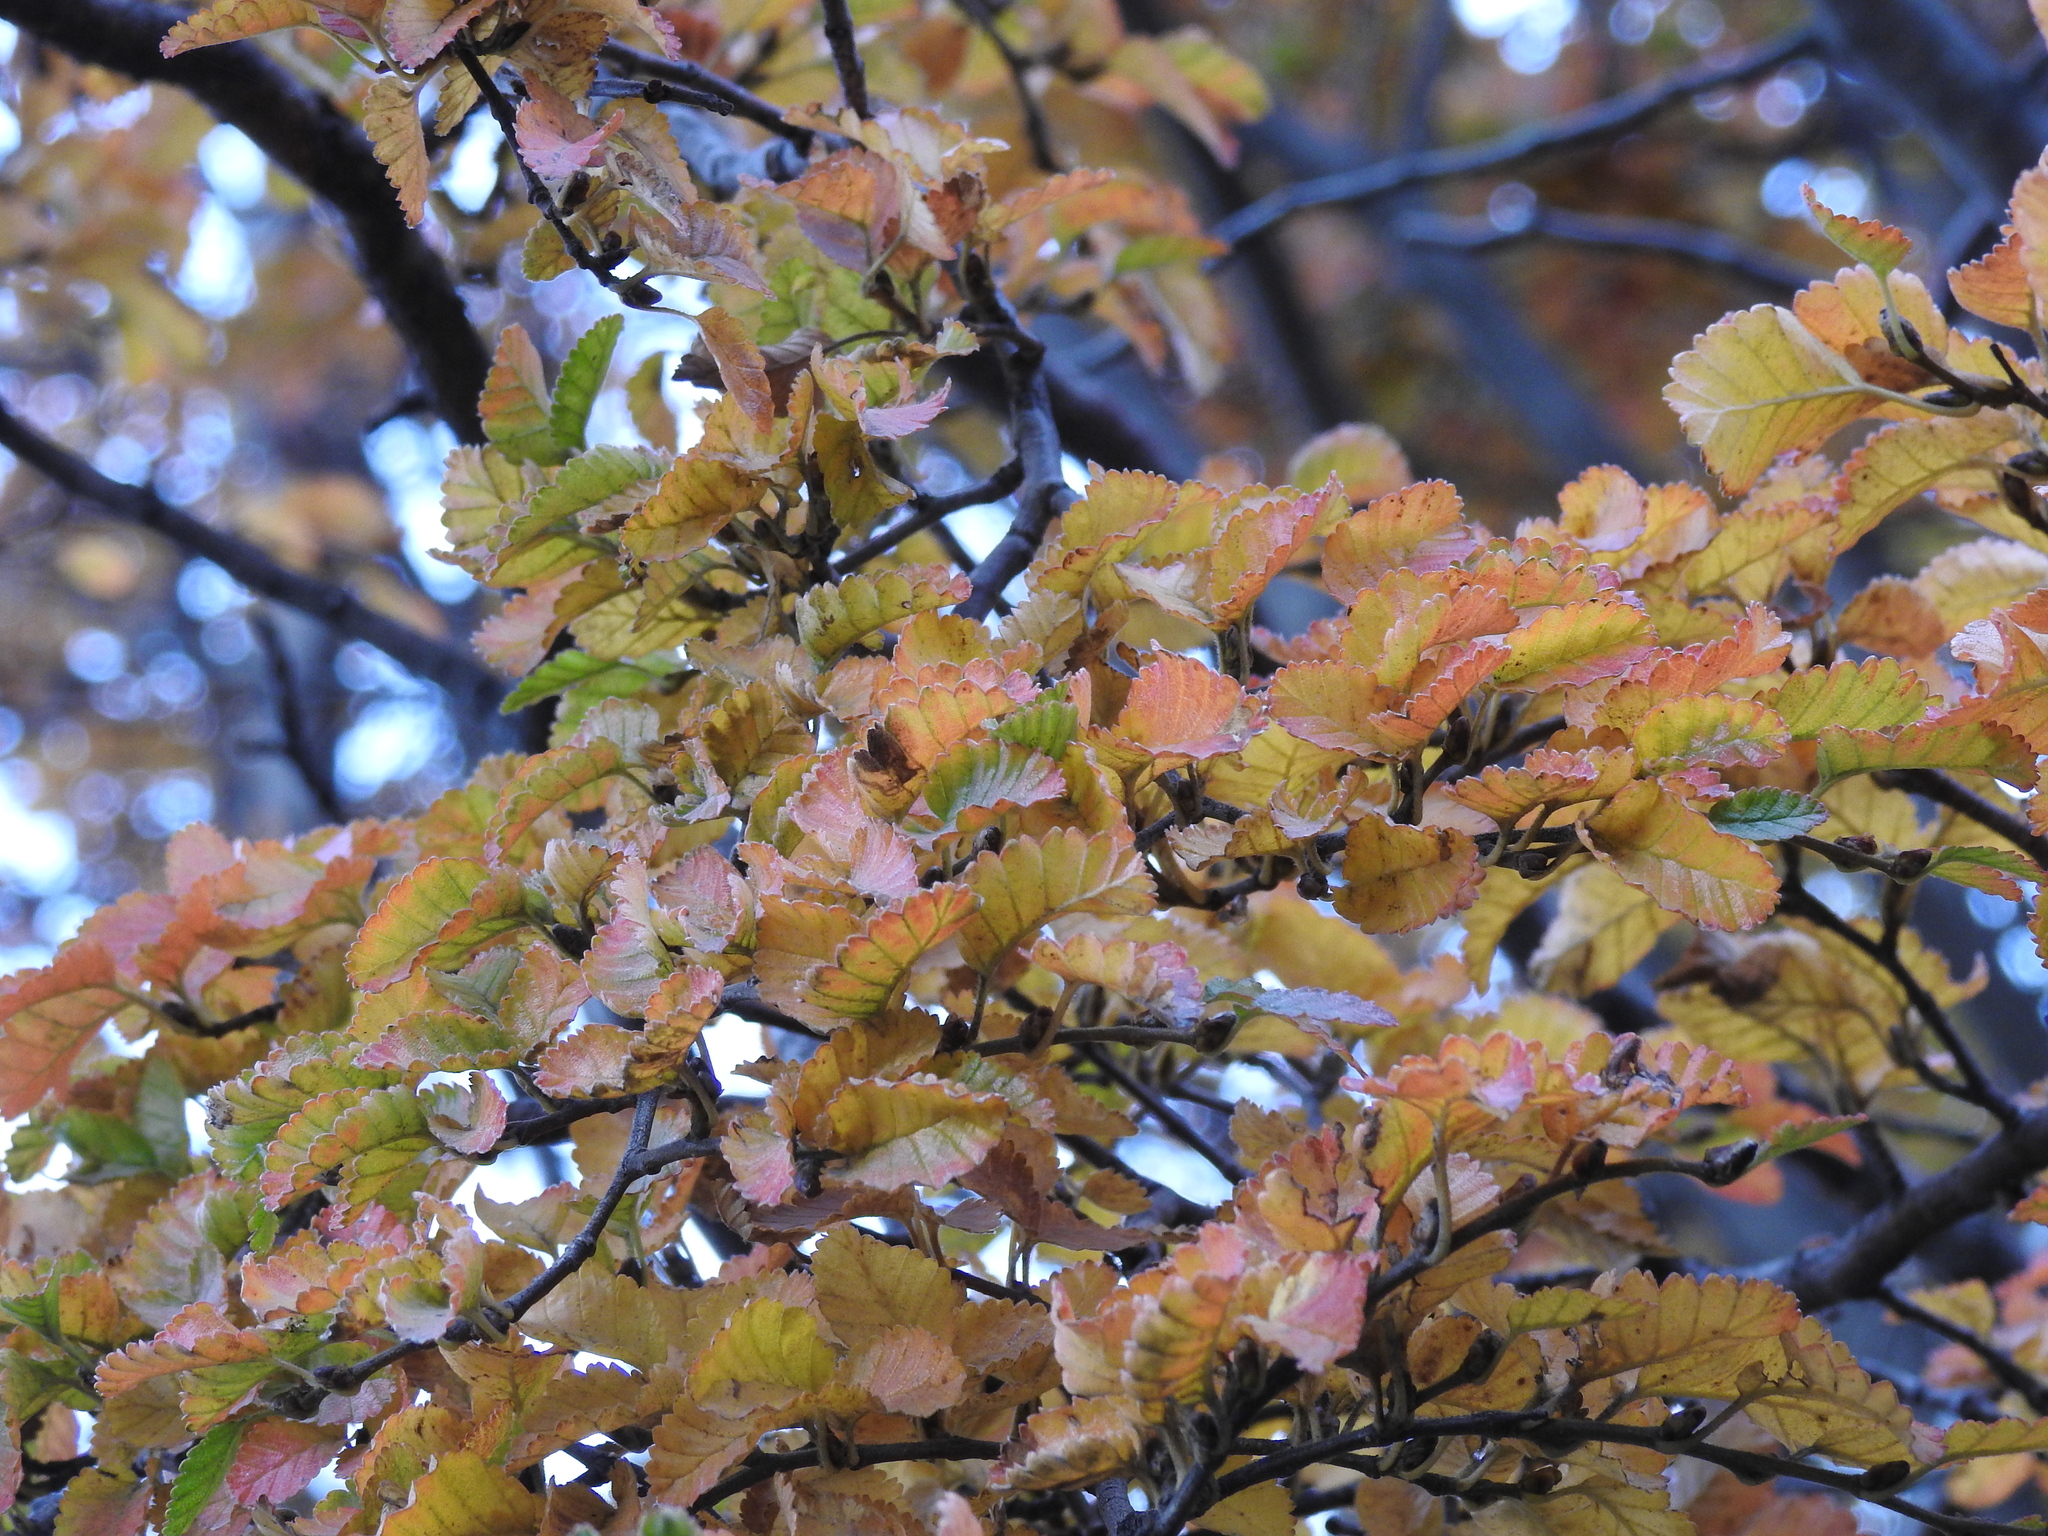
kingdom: Plantae
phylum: Tracheophyta
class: Magnoliopsida
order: Fagales
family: Nothofagaceae
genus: Nothofagus
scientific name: Nothofagus pumilio
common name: Lenga beech
